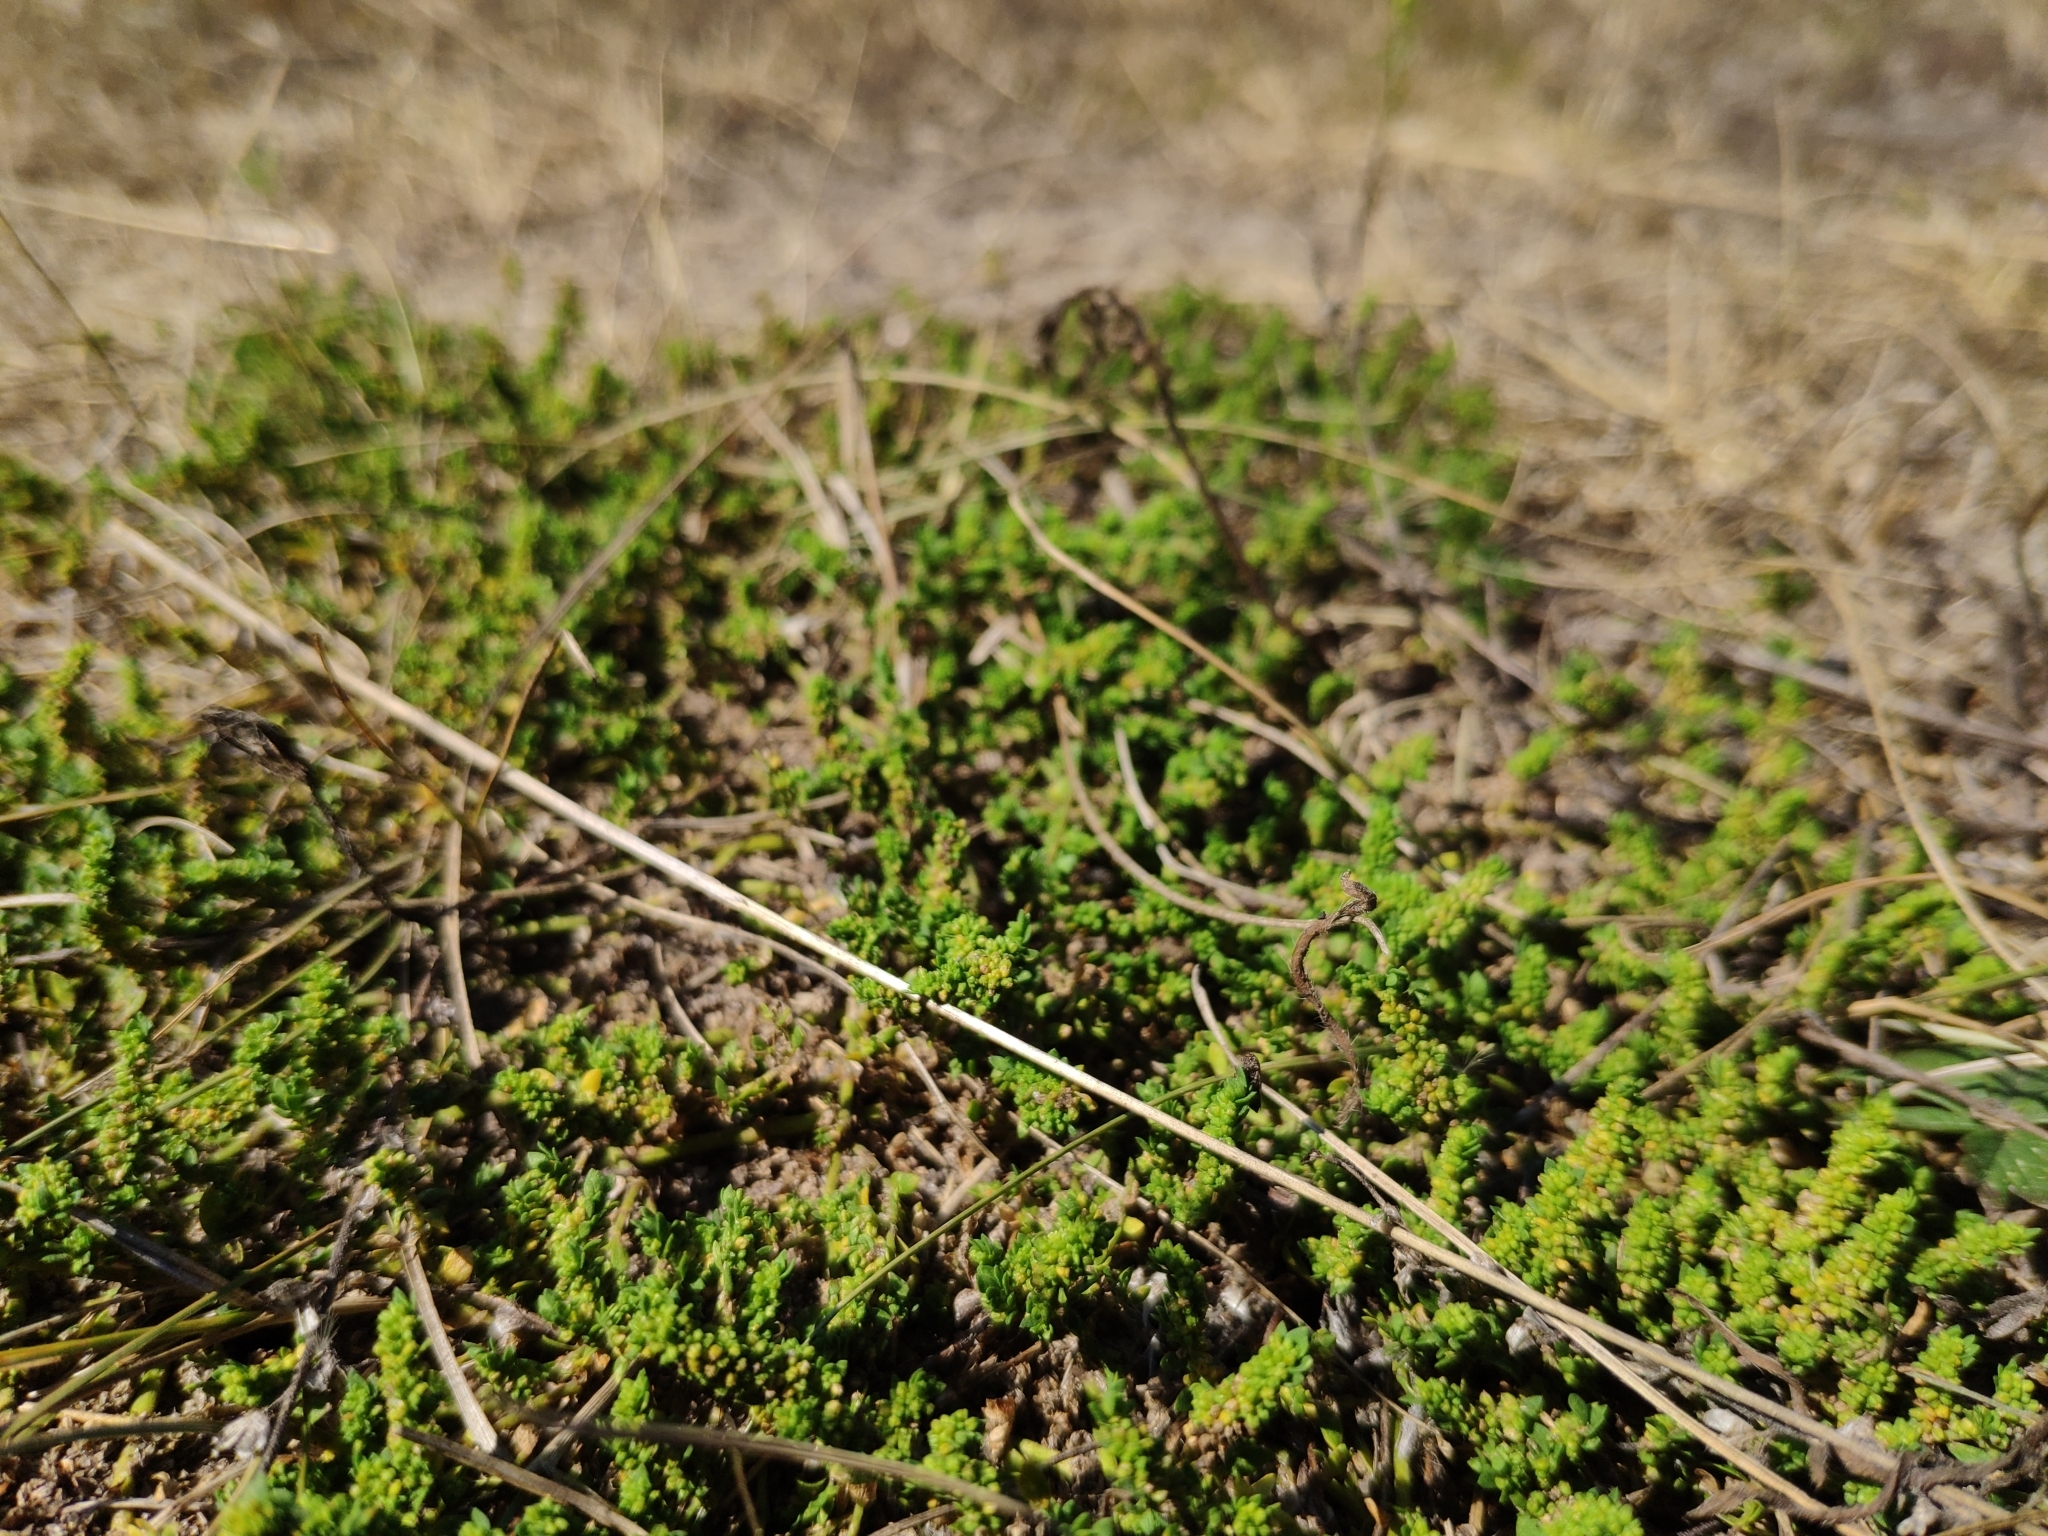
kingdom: Plantae
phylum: Tracheophyta
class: Magnoliopsida
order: Caryophyllales
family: Caryophyllaceae
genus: Herniaria
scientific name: Herniaria glabra
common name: Smooth rupturewort
